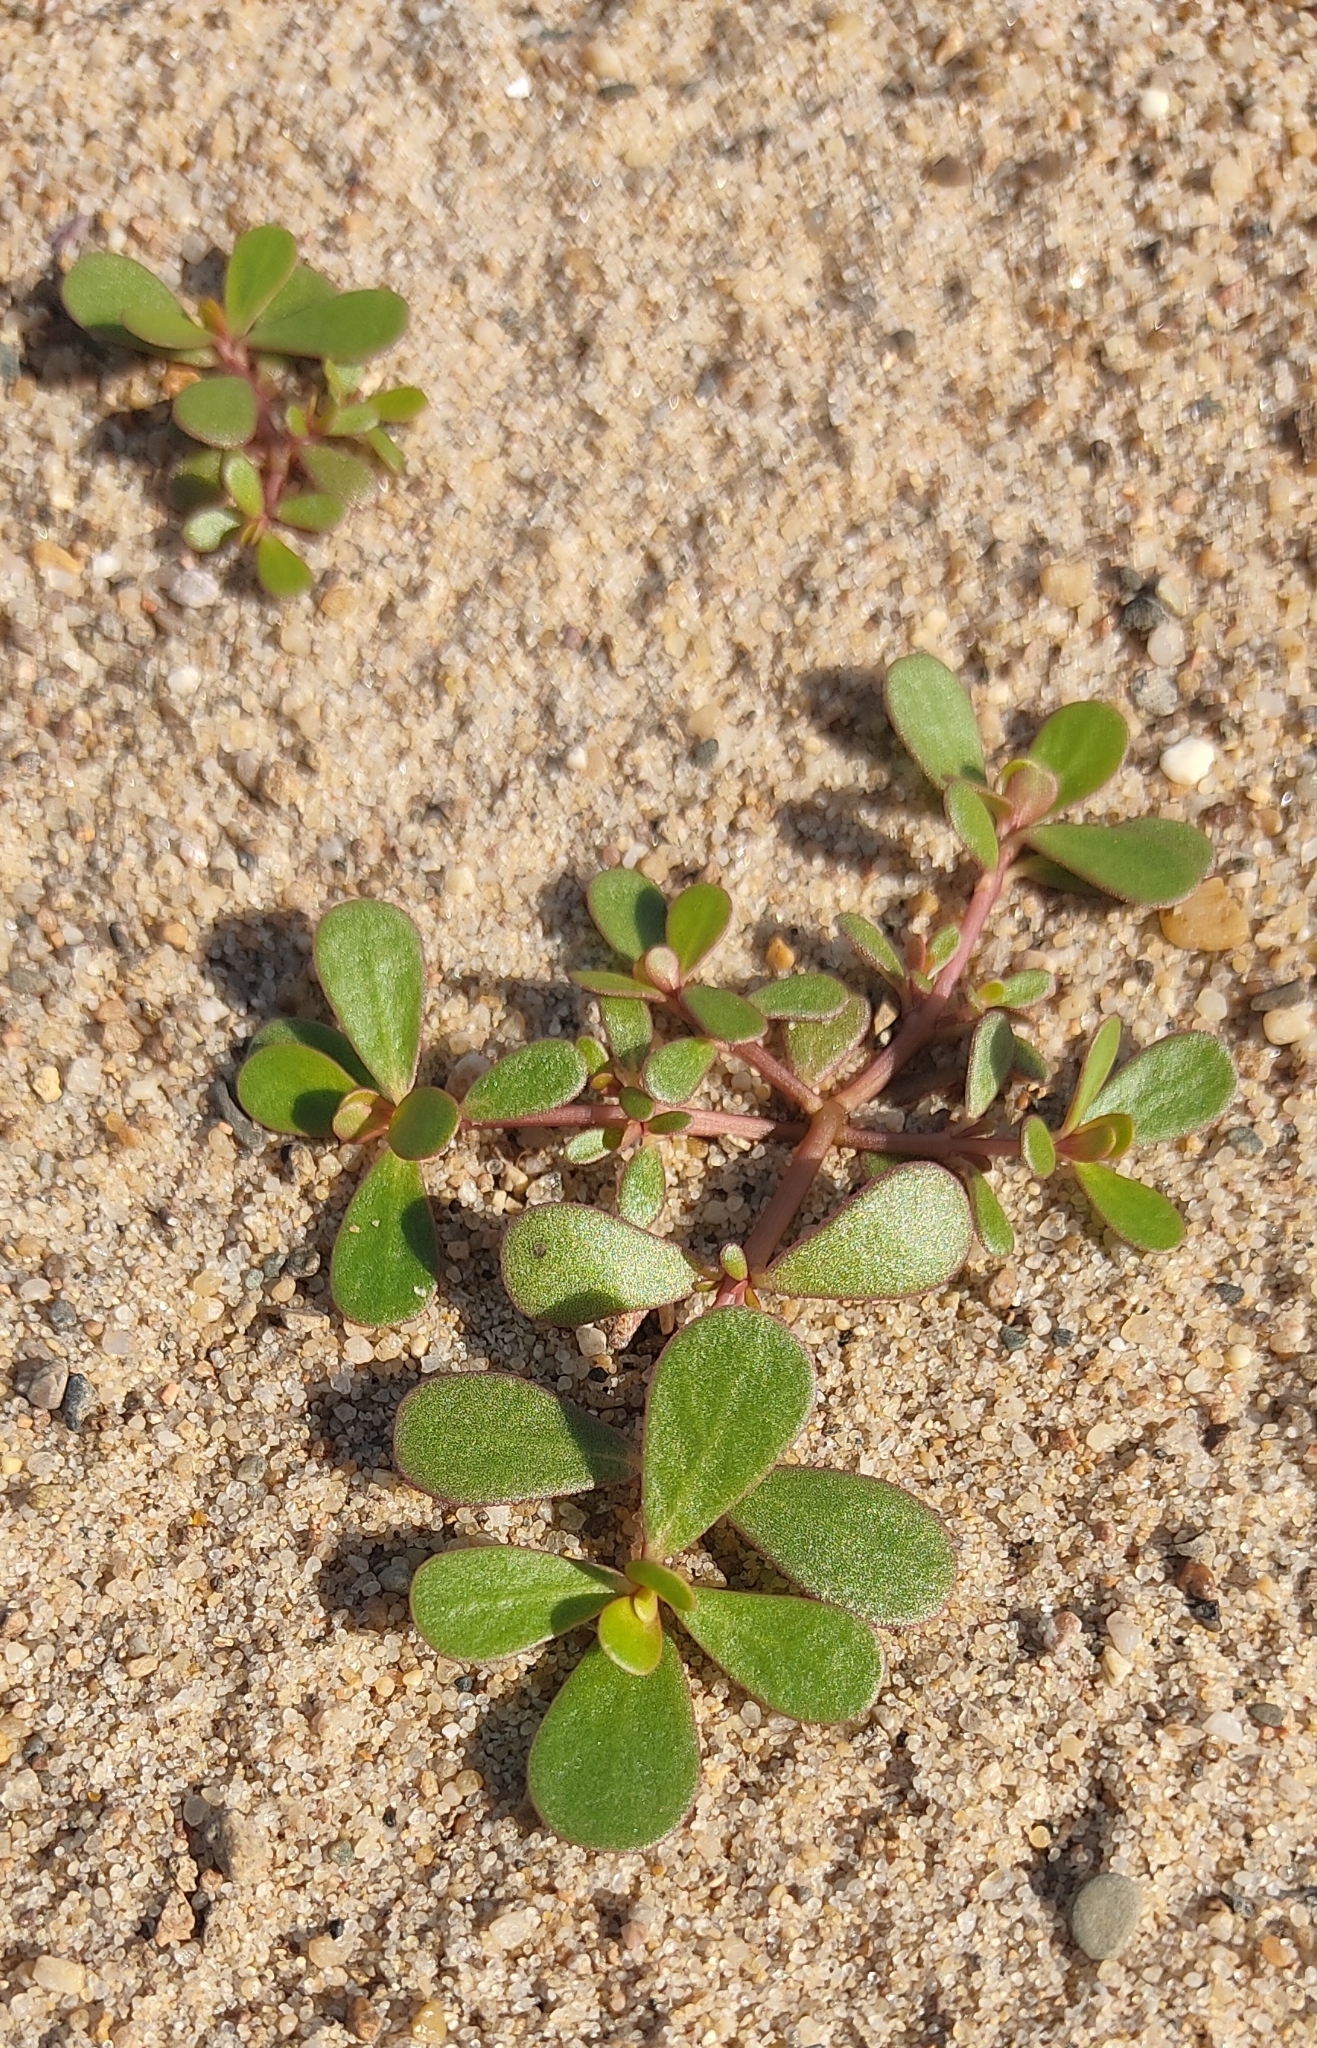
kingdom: Plantae
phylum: Tracheophyta
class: Magnoliopsida
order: Caryophyllales
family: Portulacaceae
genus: Portulaca
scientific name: Portulaca oleracea
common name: Common purslane
